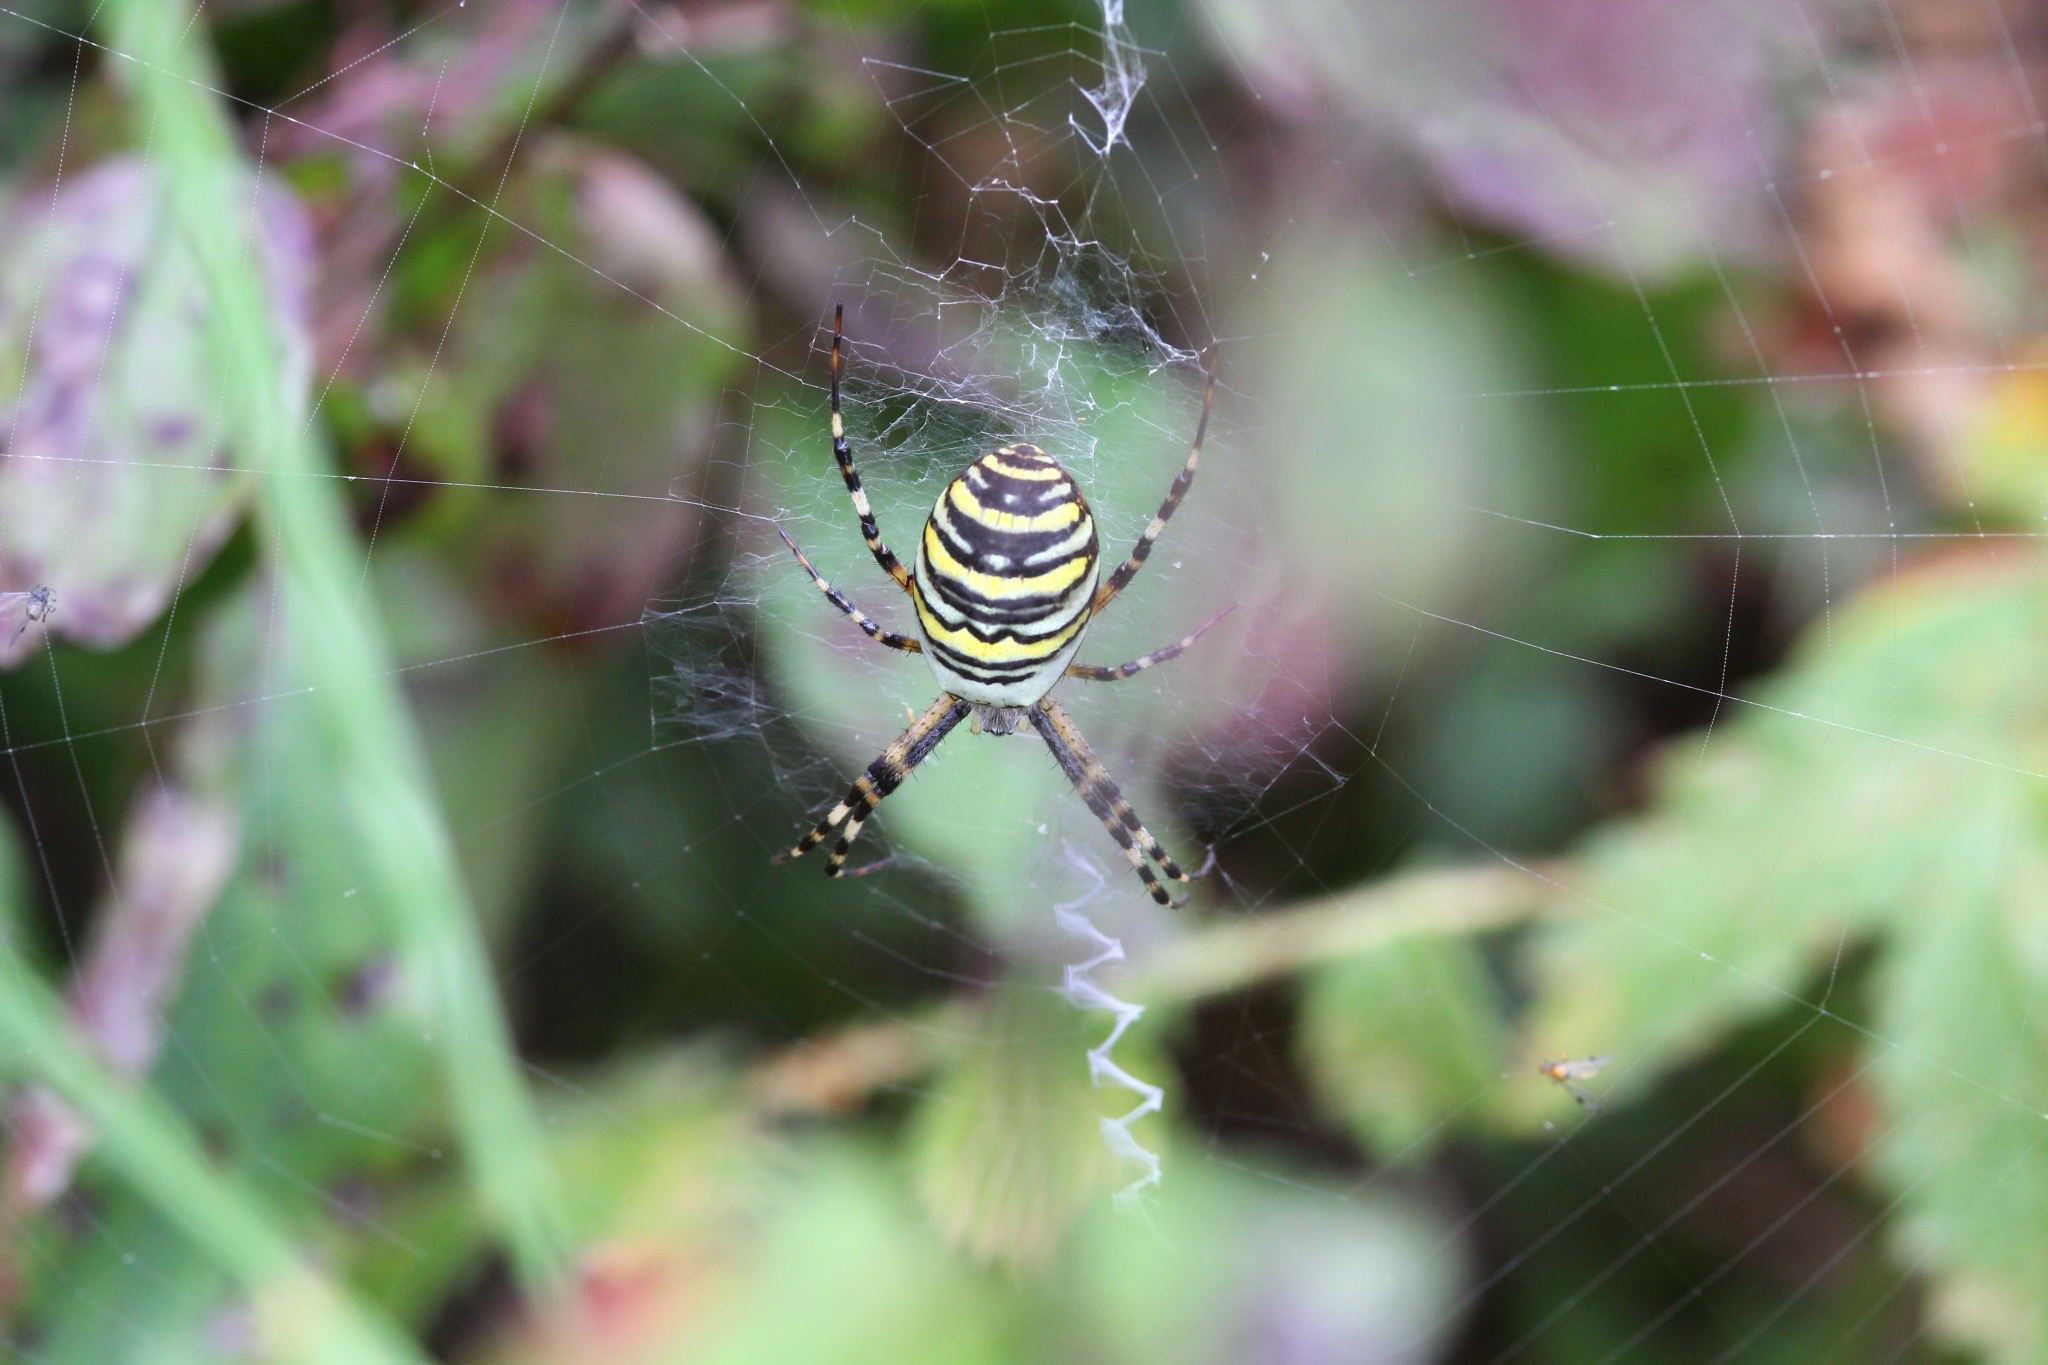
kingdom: Animalia
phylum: Arthropoda
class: Arachnida
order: Araneae
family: Araneidae
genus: Argiope
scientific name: Argiope bruennichi
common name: Wasp spider
